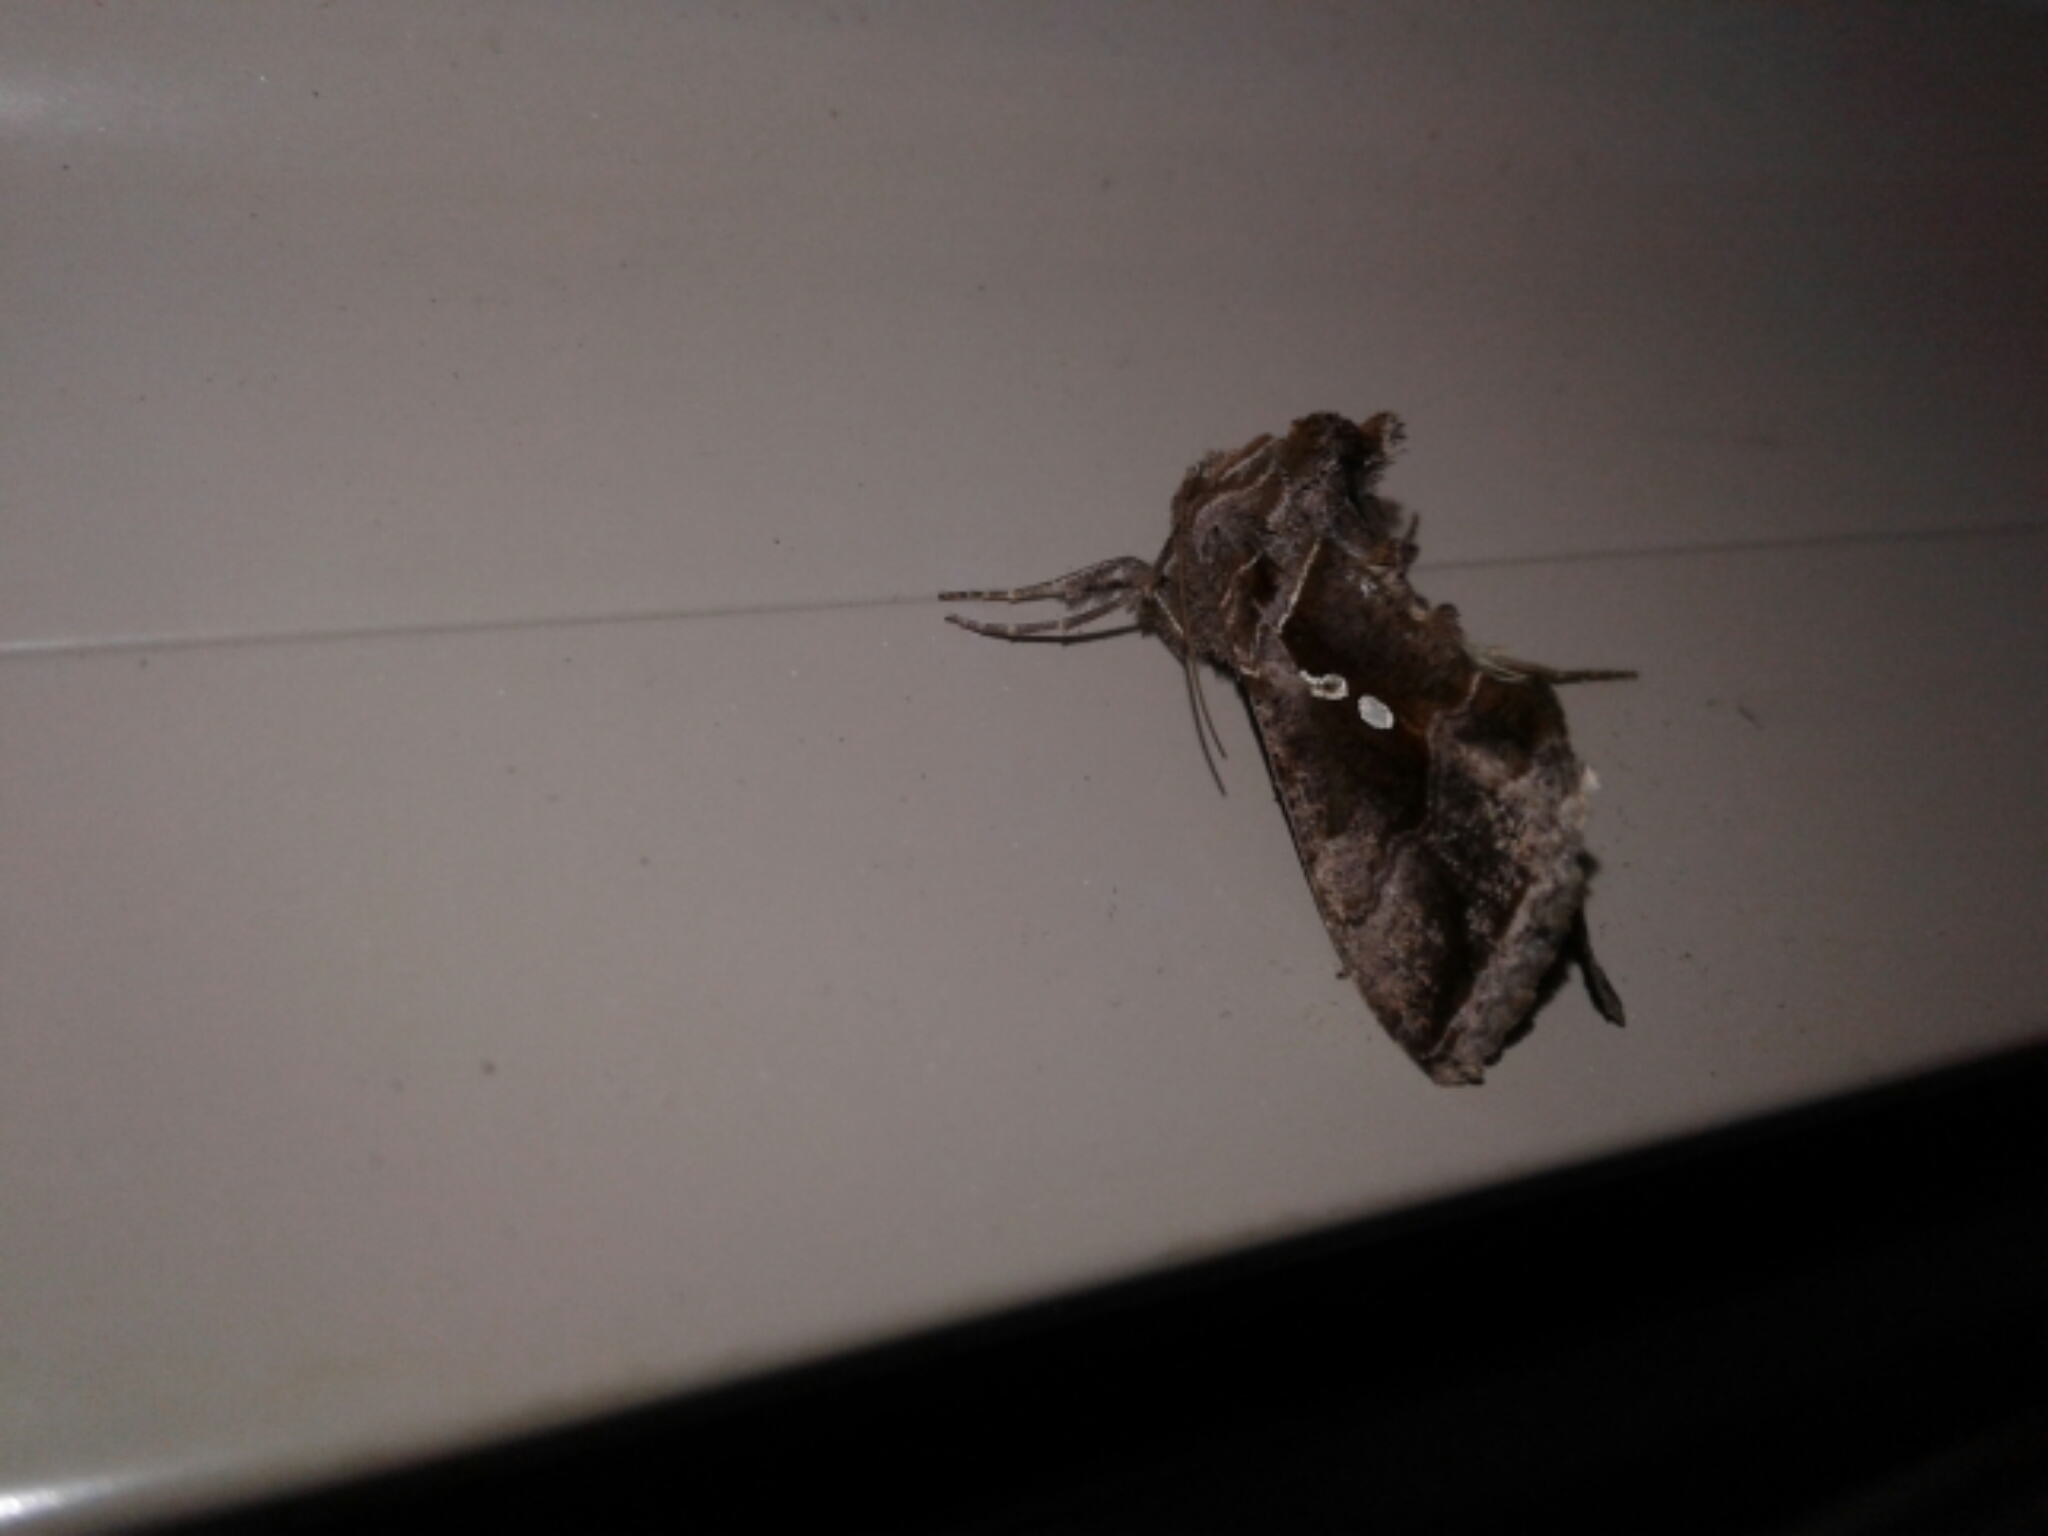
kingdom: Animalia
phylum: Arthropoda
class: Insecta
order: Lepidoptera
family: Noctuidae
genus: Chrysodeixis
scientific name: Chrysodeixis eriosoma
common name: Green garden looper
